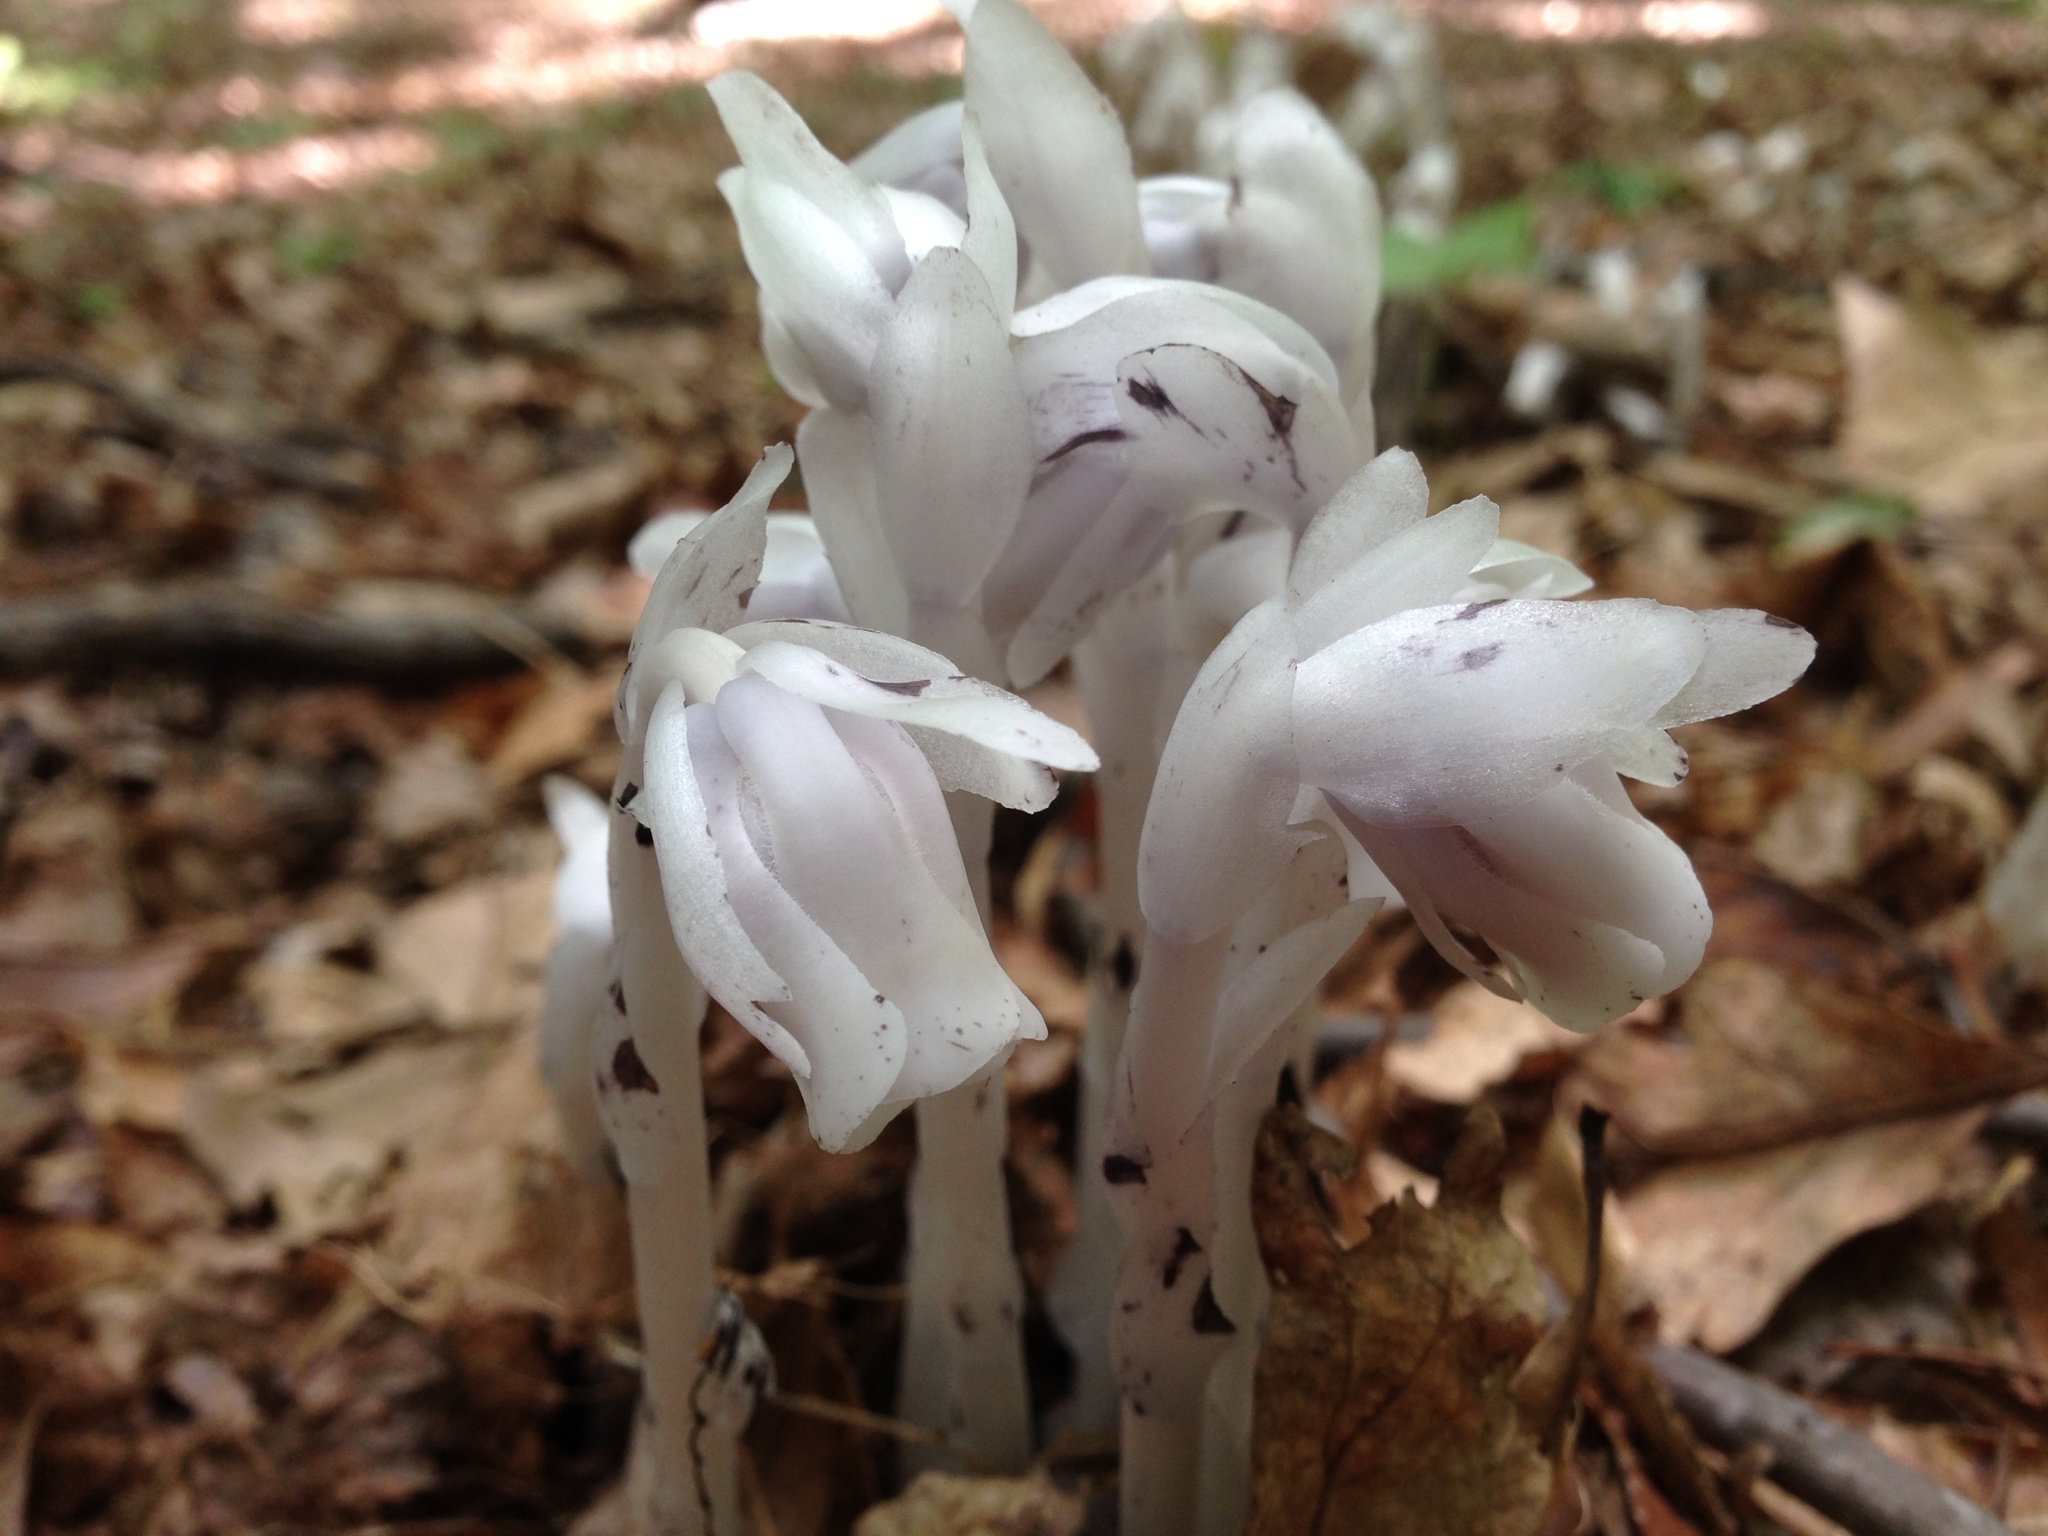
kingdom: Plantae
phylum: Tracheophyta
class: Magnoliopsida
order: Ericales
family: Ericaceae
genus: Monotropa
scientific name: Monotropa uniflora
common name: Convulsion root
